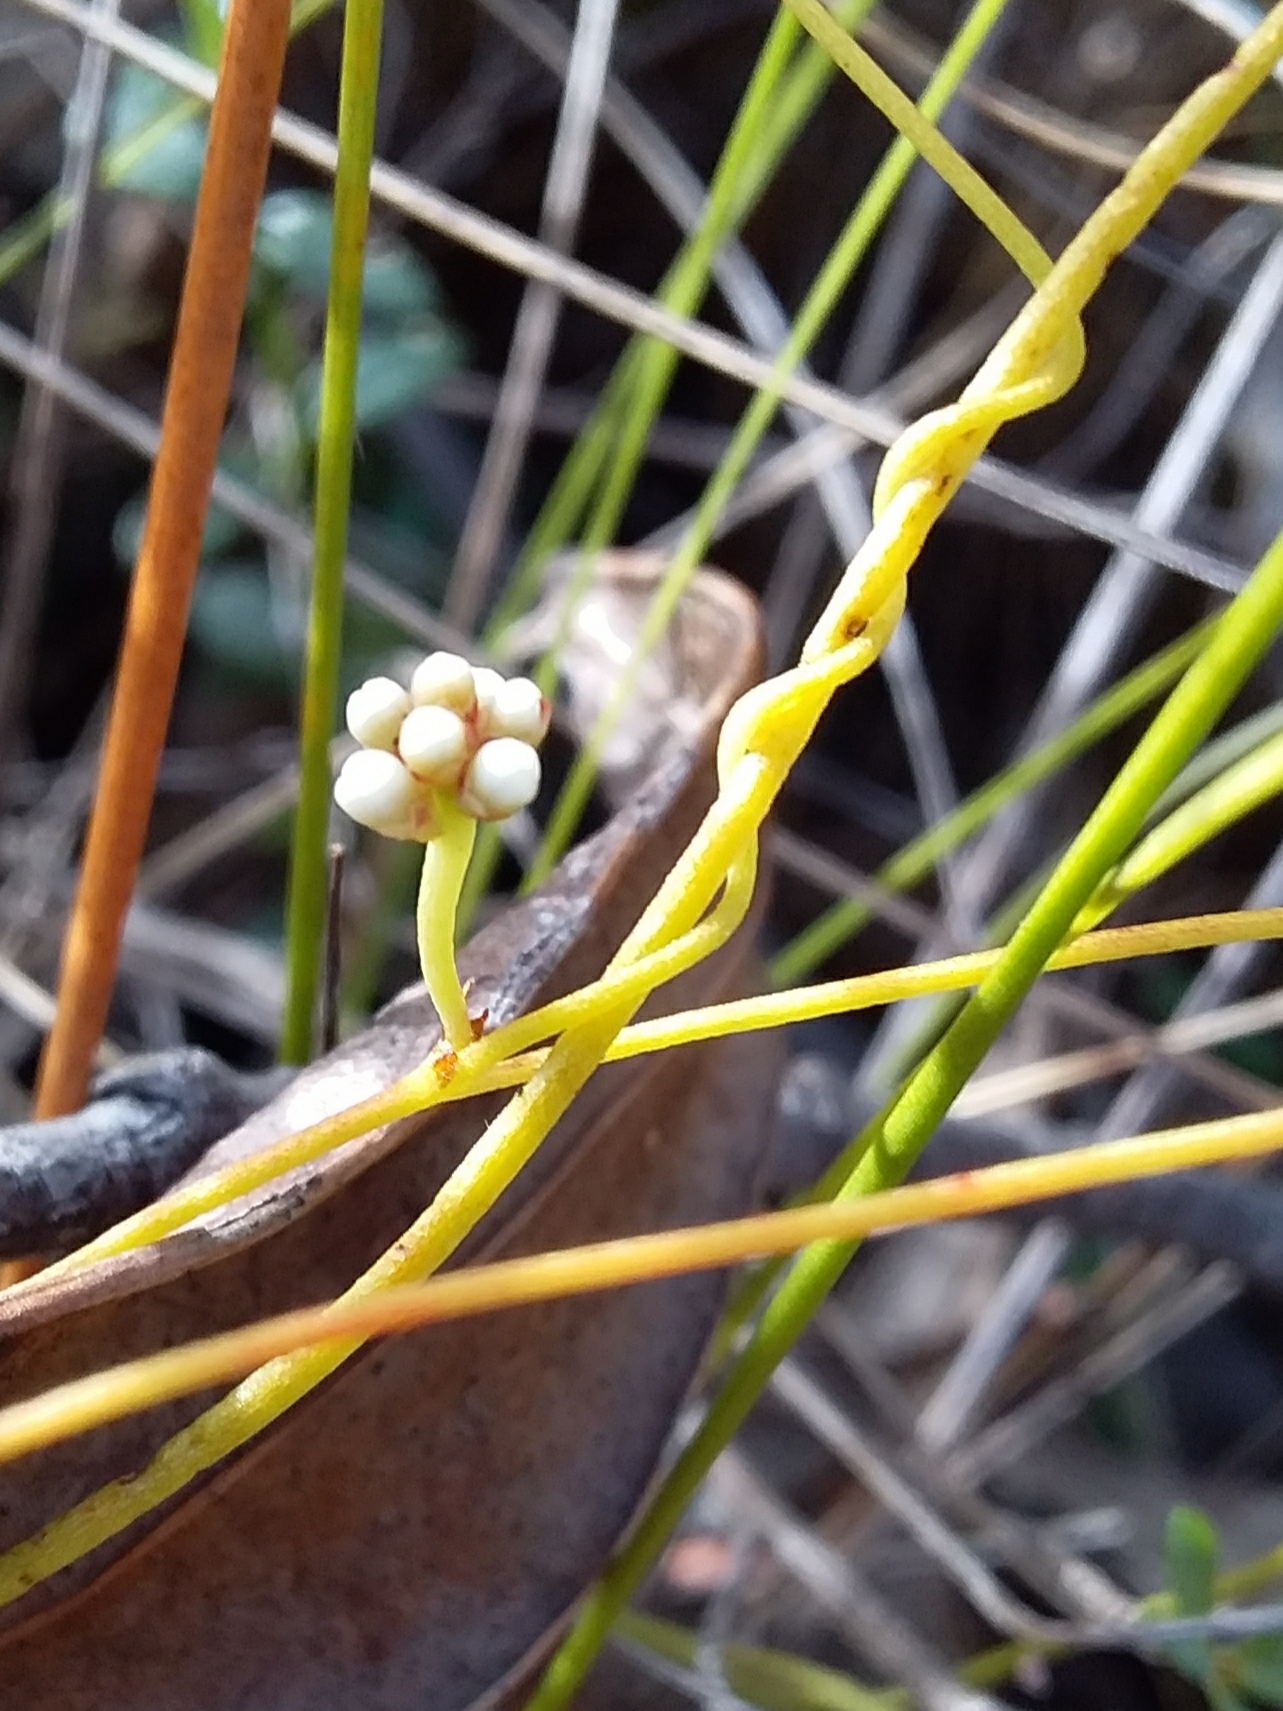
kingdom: Plantae
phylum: Tracheophyta
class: Magnoliopsida
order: Laurales
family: Lauraceae
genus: Cassytha
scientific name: Cassytha glabella
